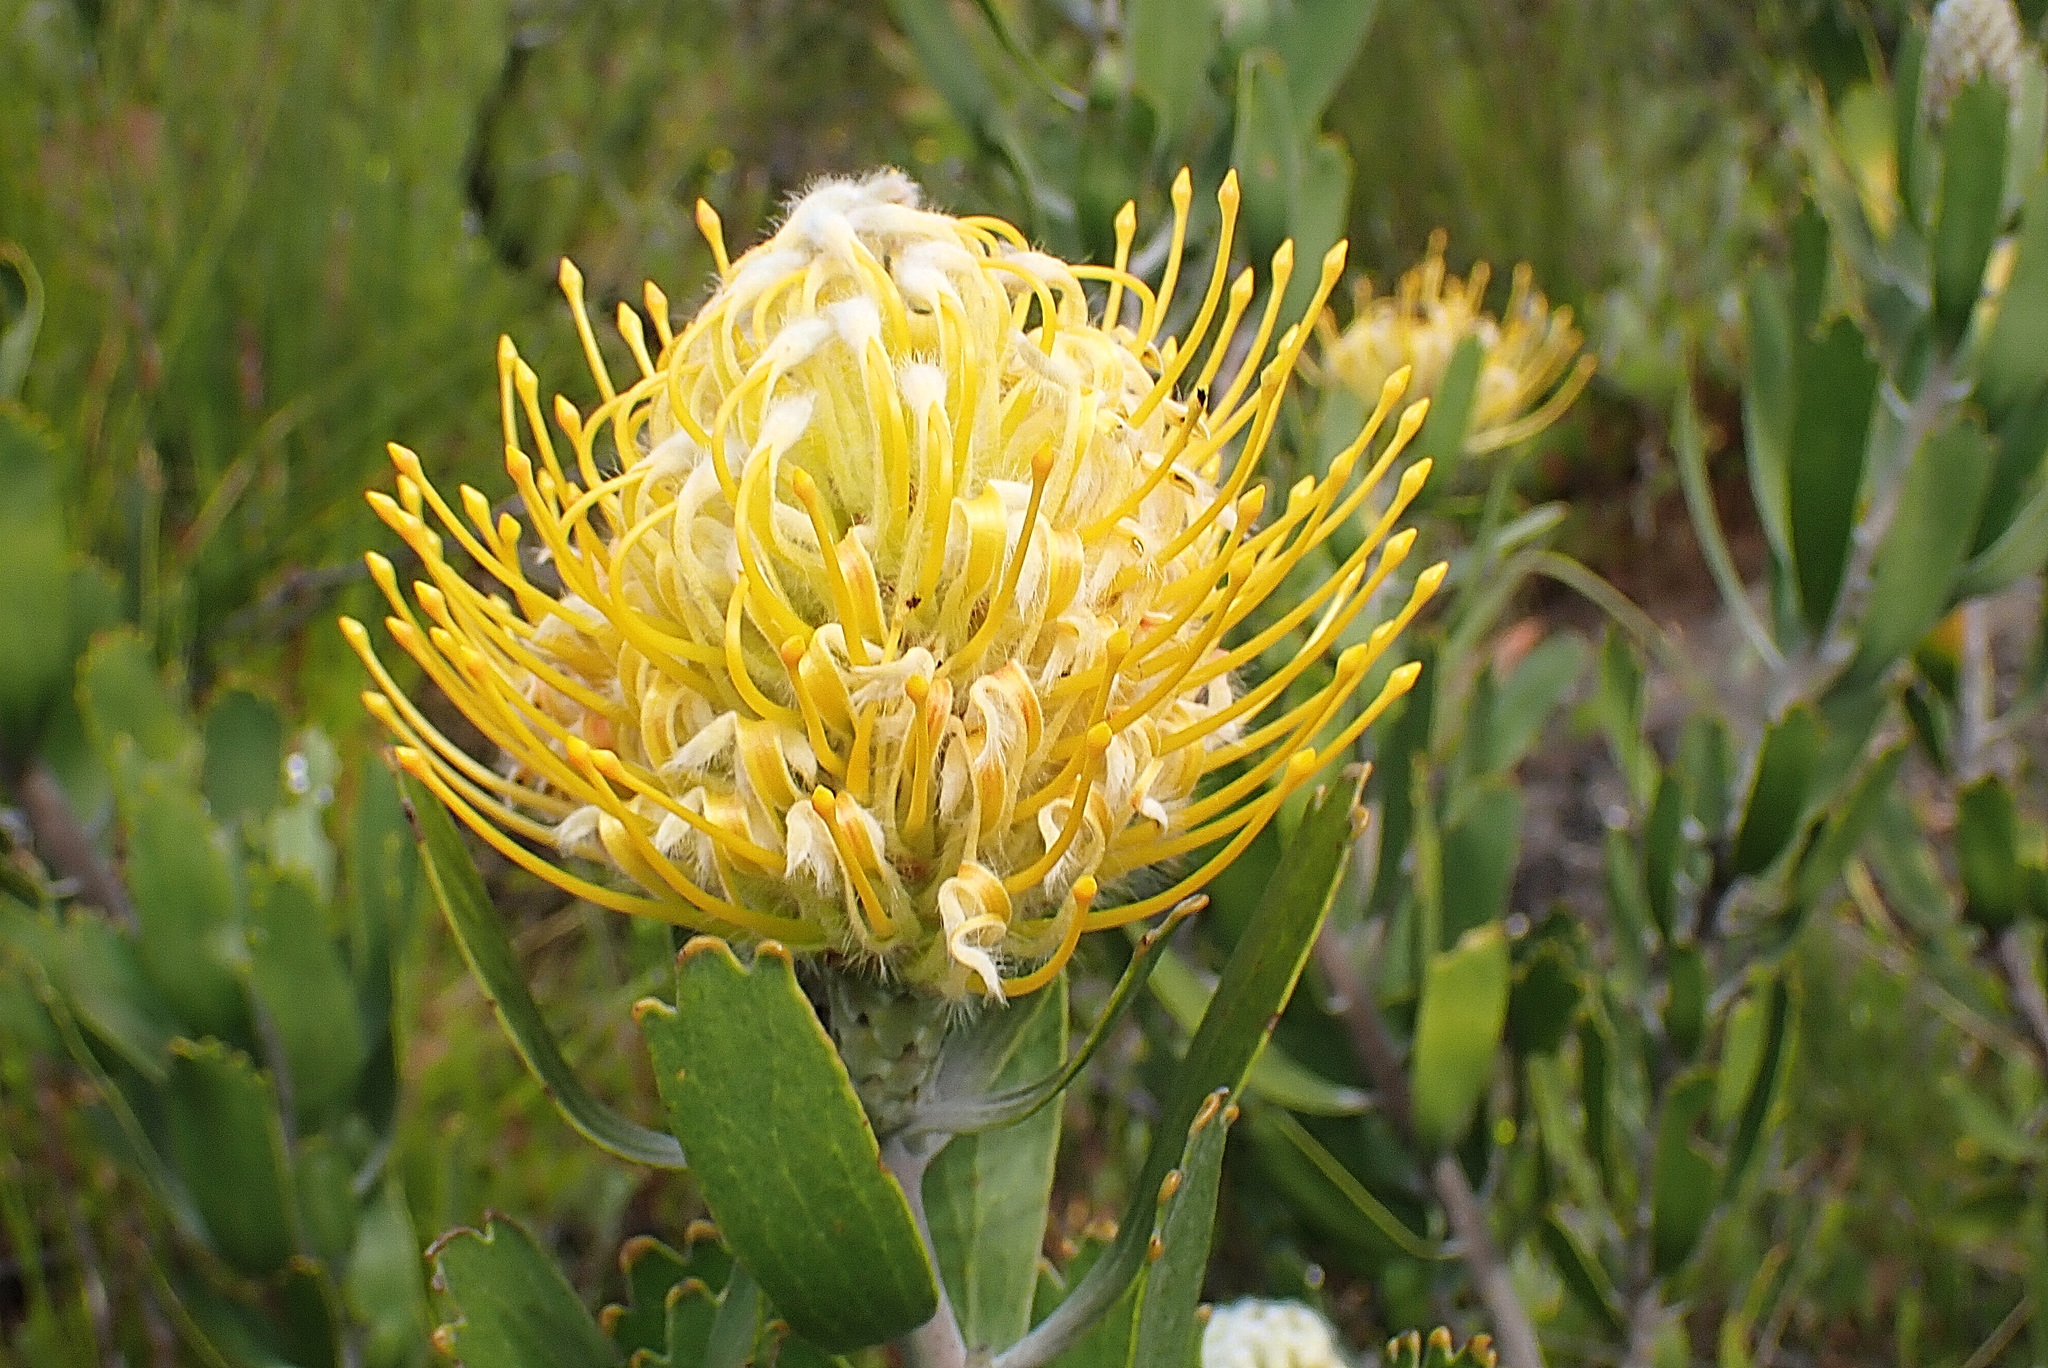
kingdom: Plantae
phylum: Tracheophyta
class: Magnoliopsida
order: Proteales
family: Proteaceae
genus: Leucospermum
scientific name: Leucospermum cuneiforme
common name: Common pincushion
